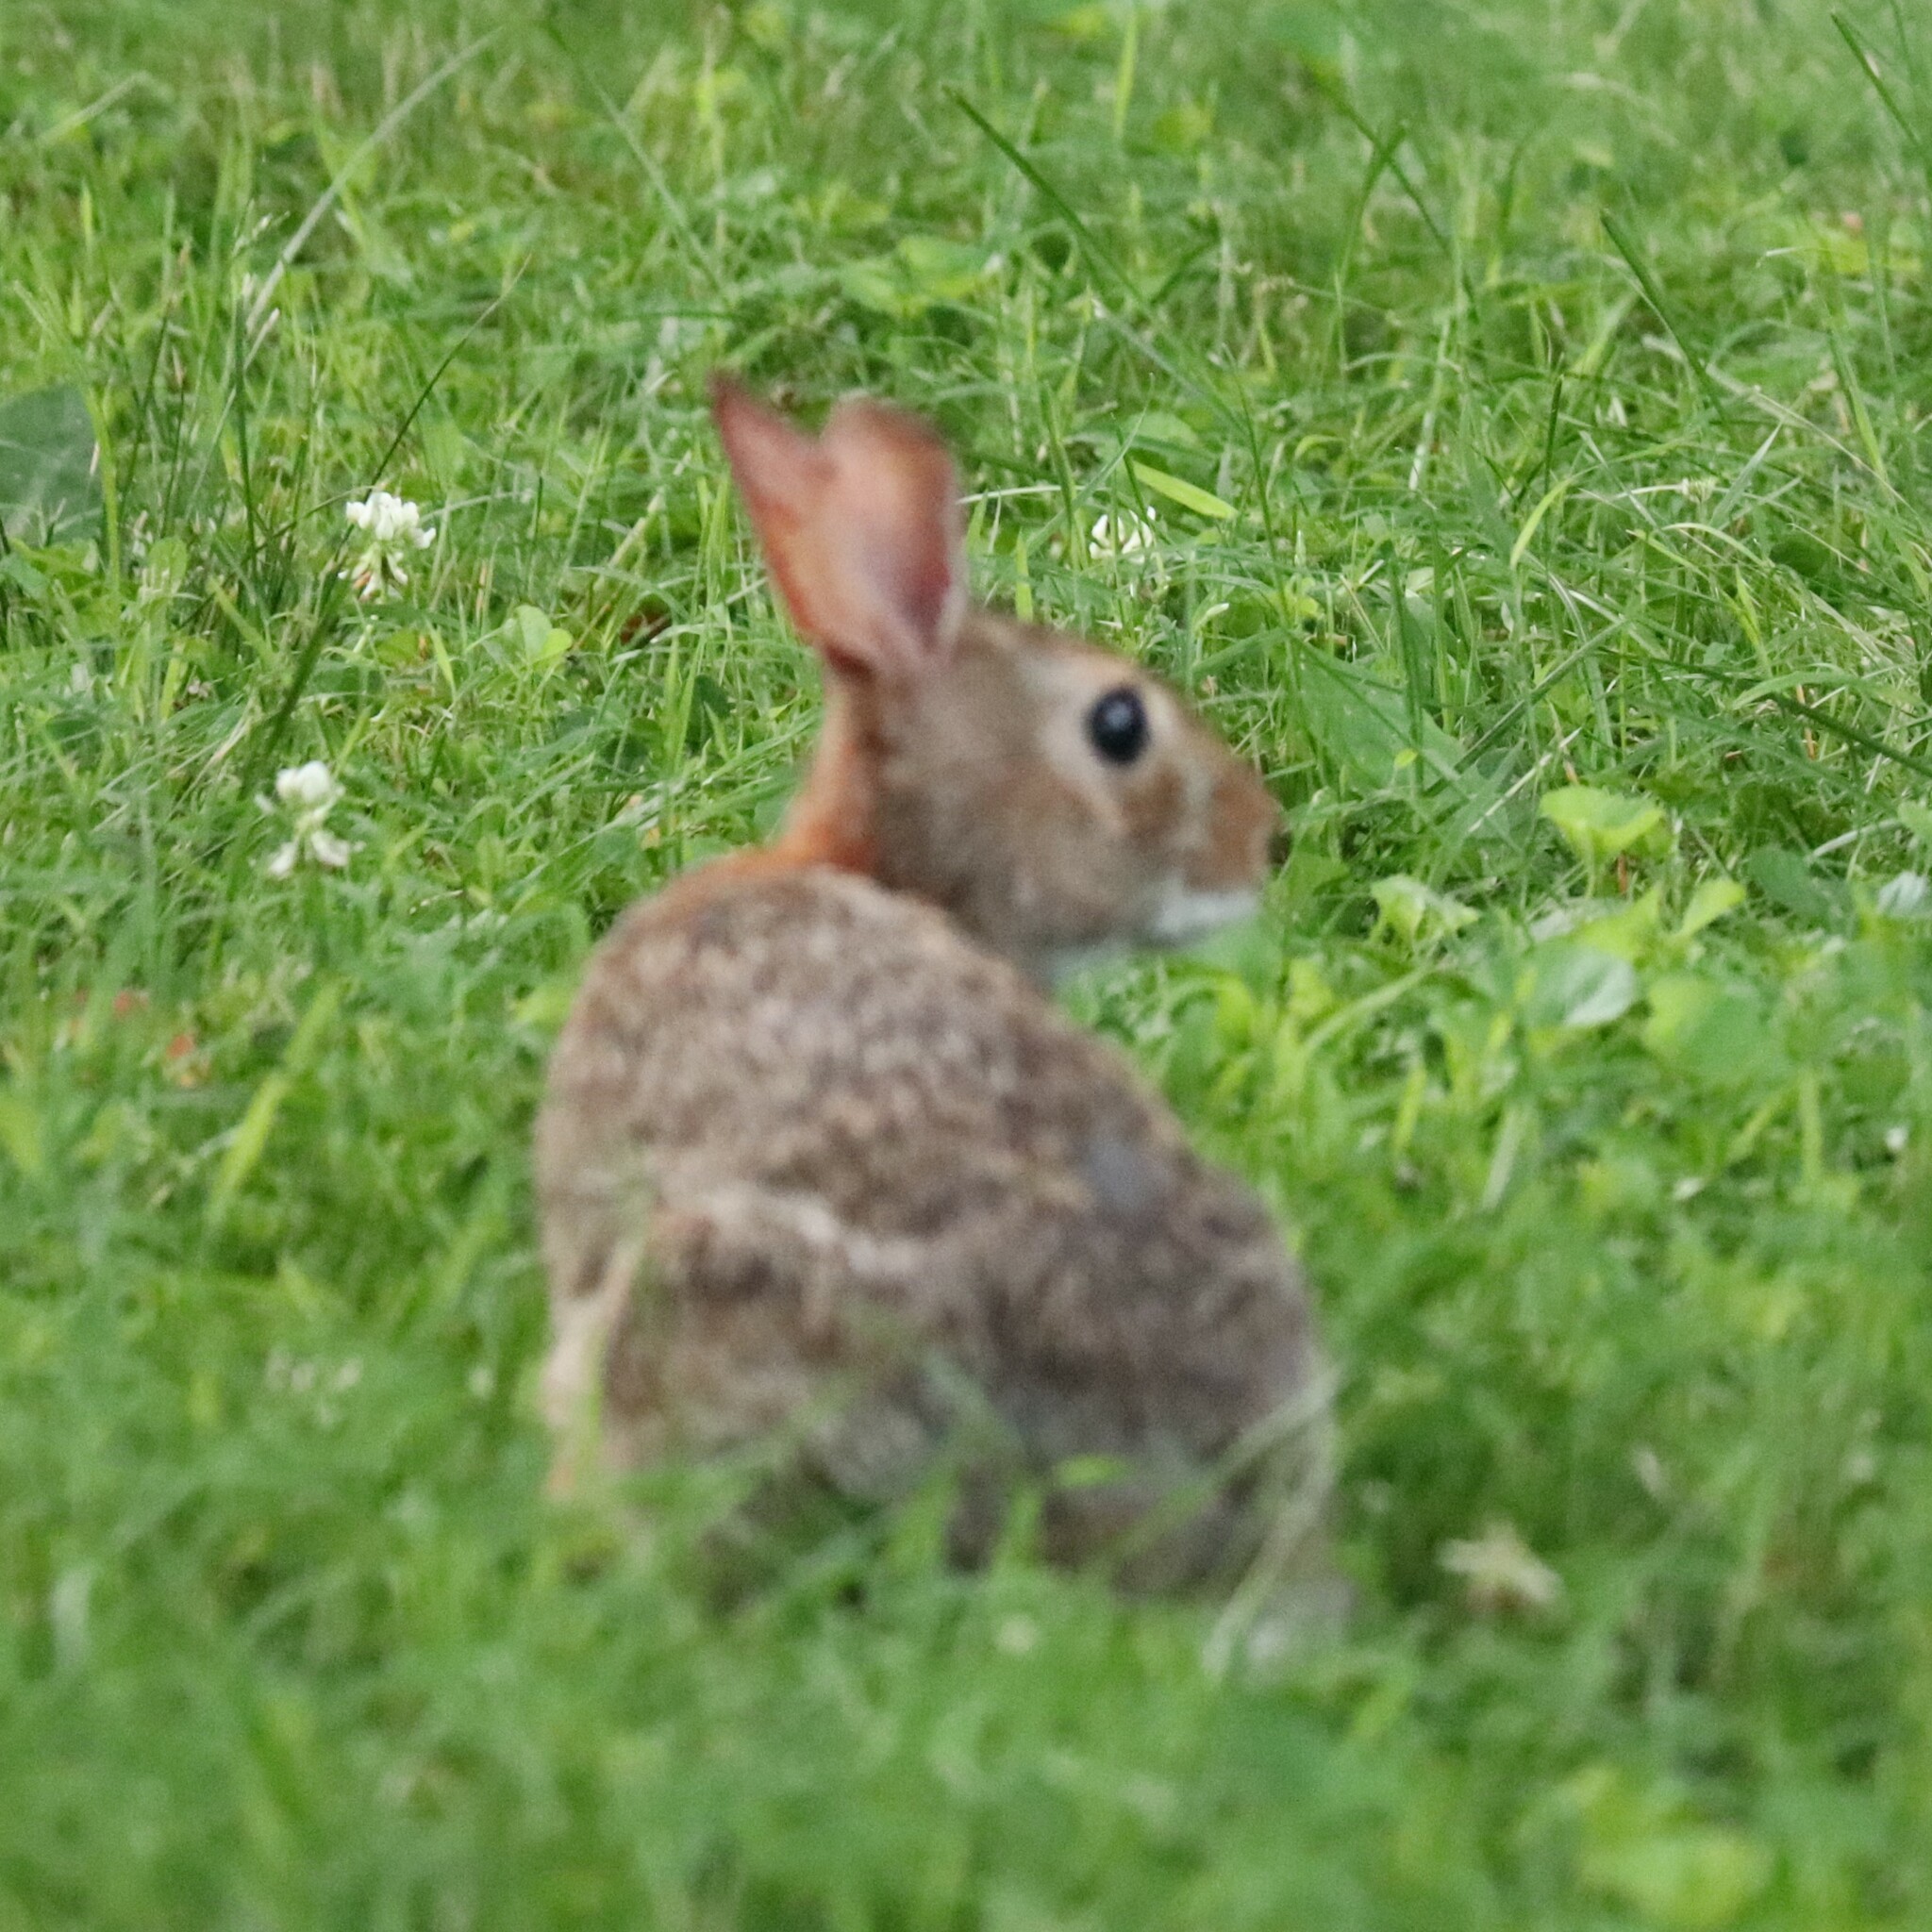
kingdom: Animalia
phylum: Chordata
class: Mammalia
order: Lagomorpha
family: Leporidae
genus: Sylvilagus
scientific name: Sylvilagus floridanus
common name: Eastern cottontail
